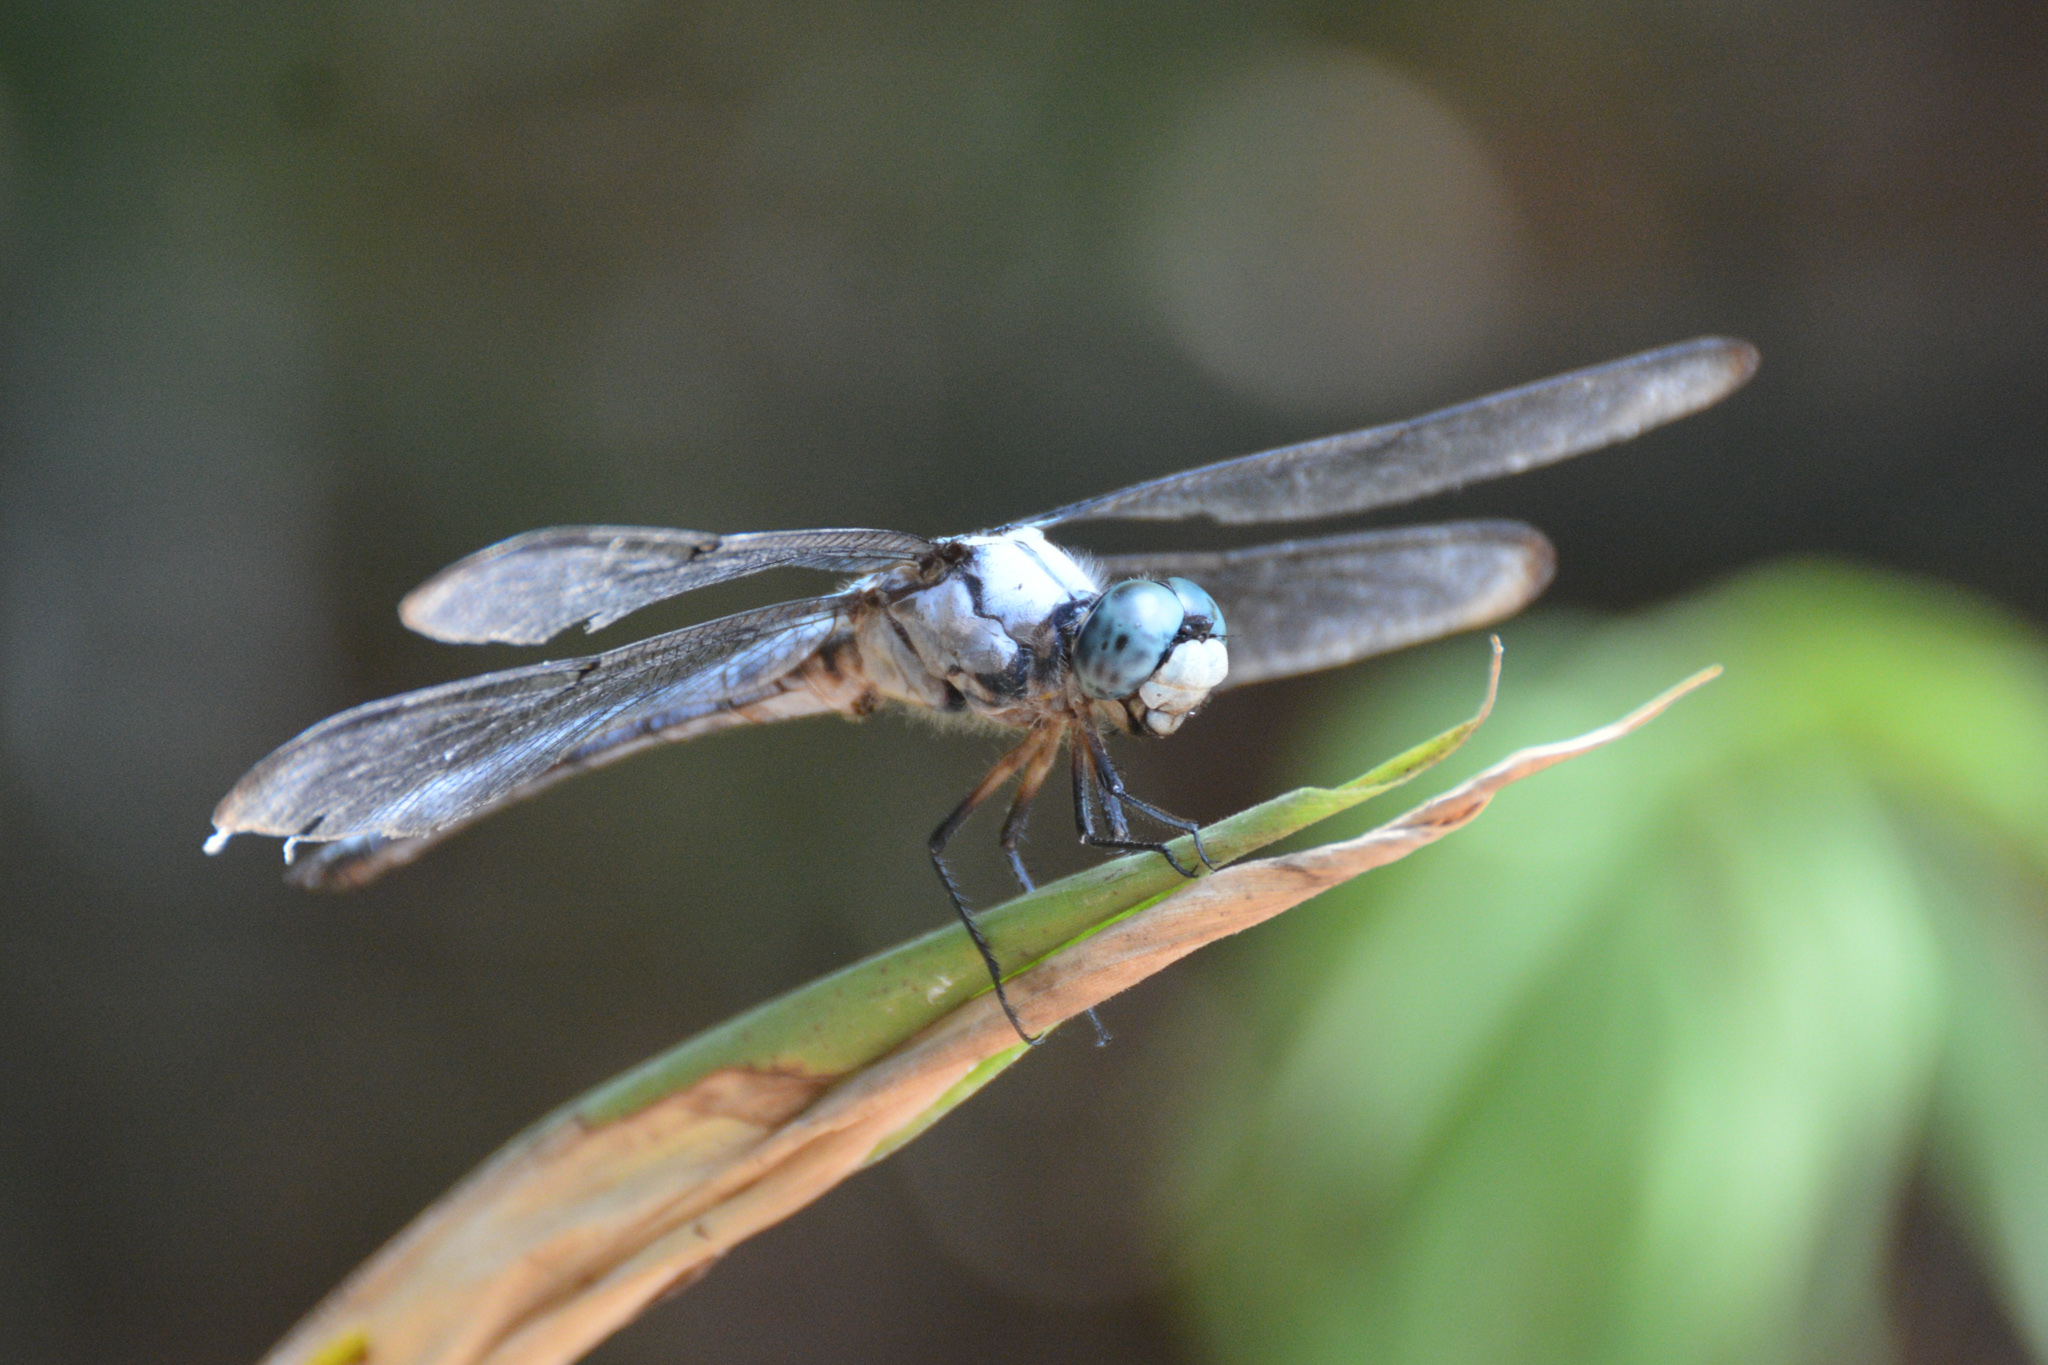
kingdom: Animalia
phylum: Arthropoda
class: Insecta
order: Odonata
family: Libellulidae
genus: Libellula
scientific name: Libellula vibrans
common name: Great blue skimmer
